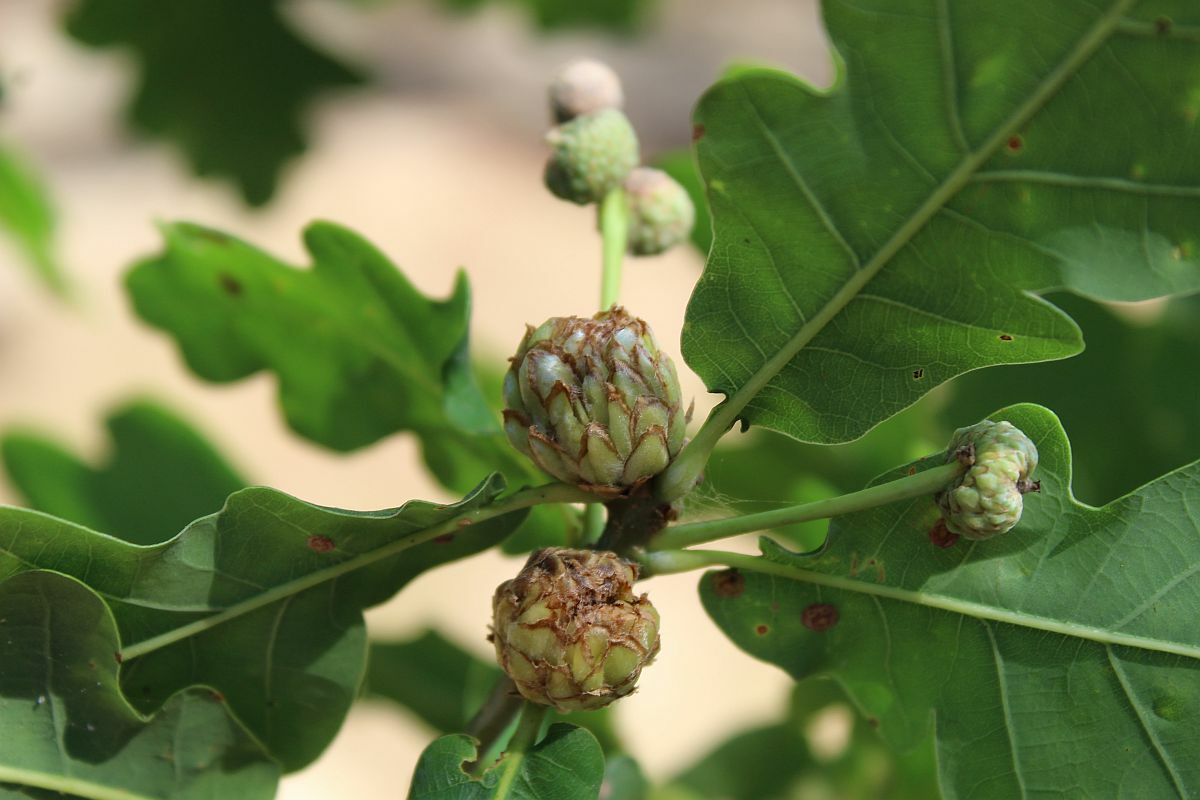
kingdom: Animalia
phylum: Arthropoda
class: Insecta
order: Hymenoptera
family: Cynipidae
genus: Andricus
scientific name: Andricus foecundatrix
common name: Artichoke gall
